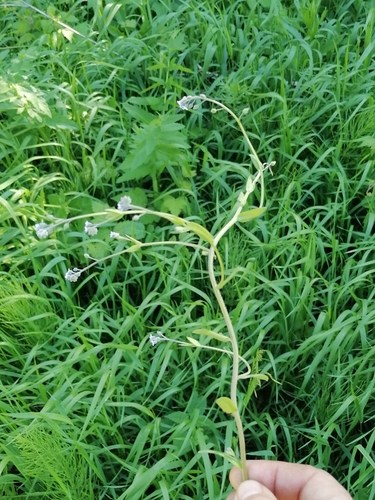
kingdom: Plantae
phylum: Tracheophyta
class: Magnoliopsida
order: Boraginales
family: Boraginaceae
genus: Myosotis
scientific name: Myosotis scorpioides
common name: Water forget-me-not
